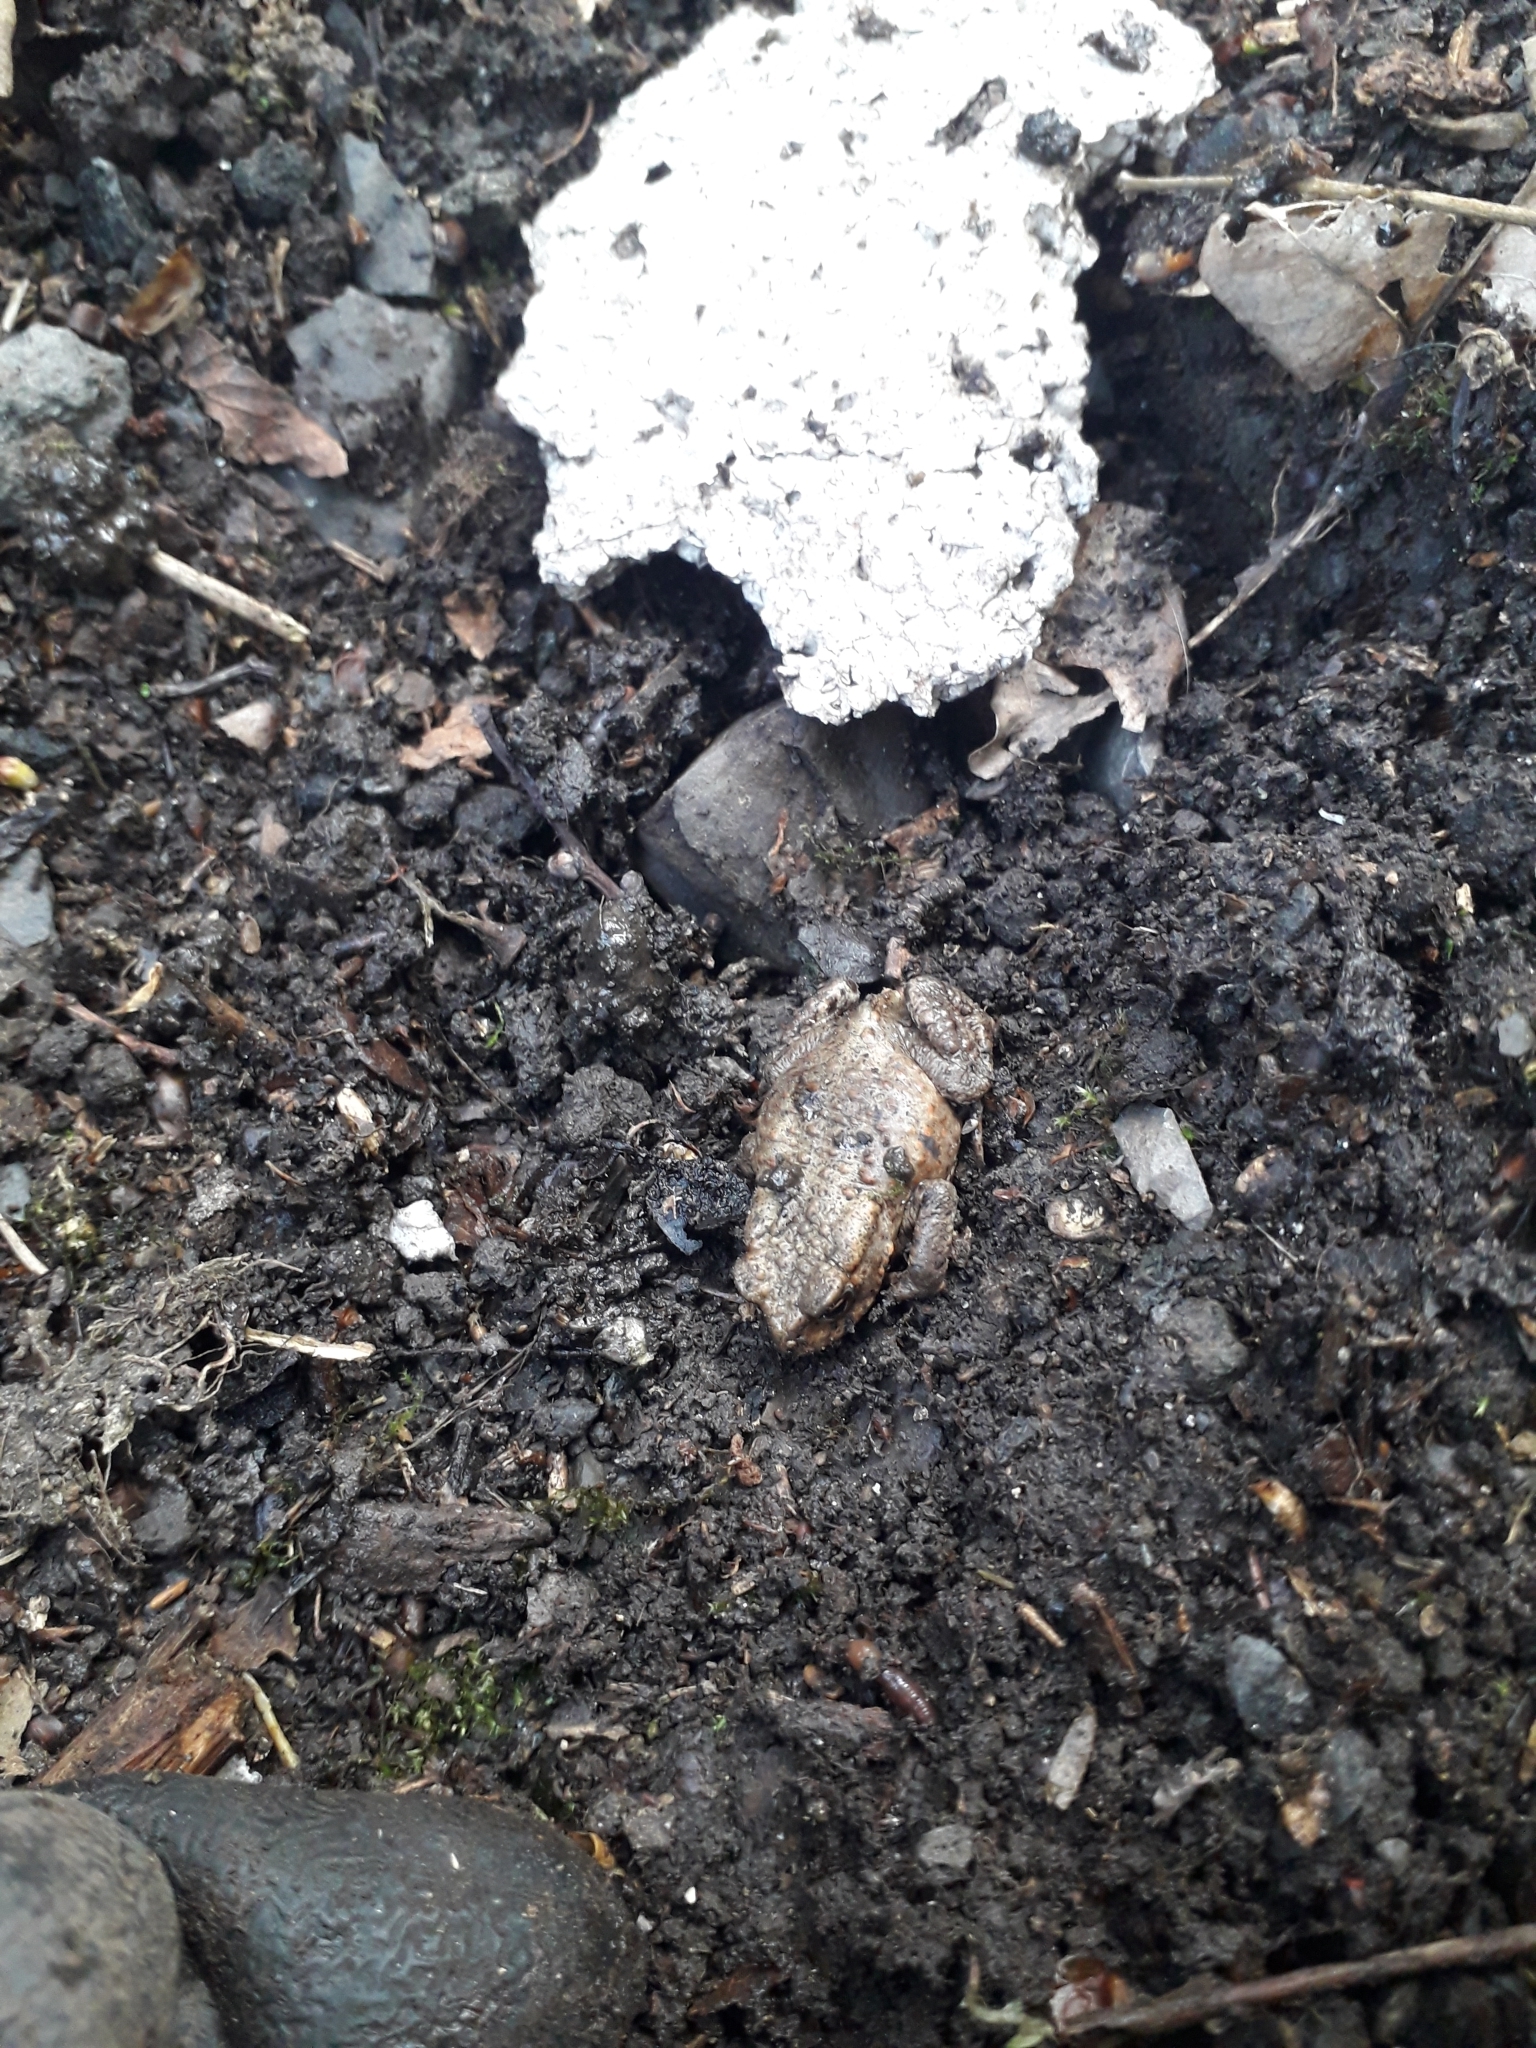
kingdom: Animalia
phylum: Chordata
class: Amphibia
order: Anura
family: Bufonidae
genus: Bufo
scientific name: Bufo bufo
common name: Common toad
